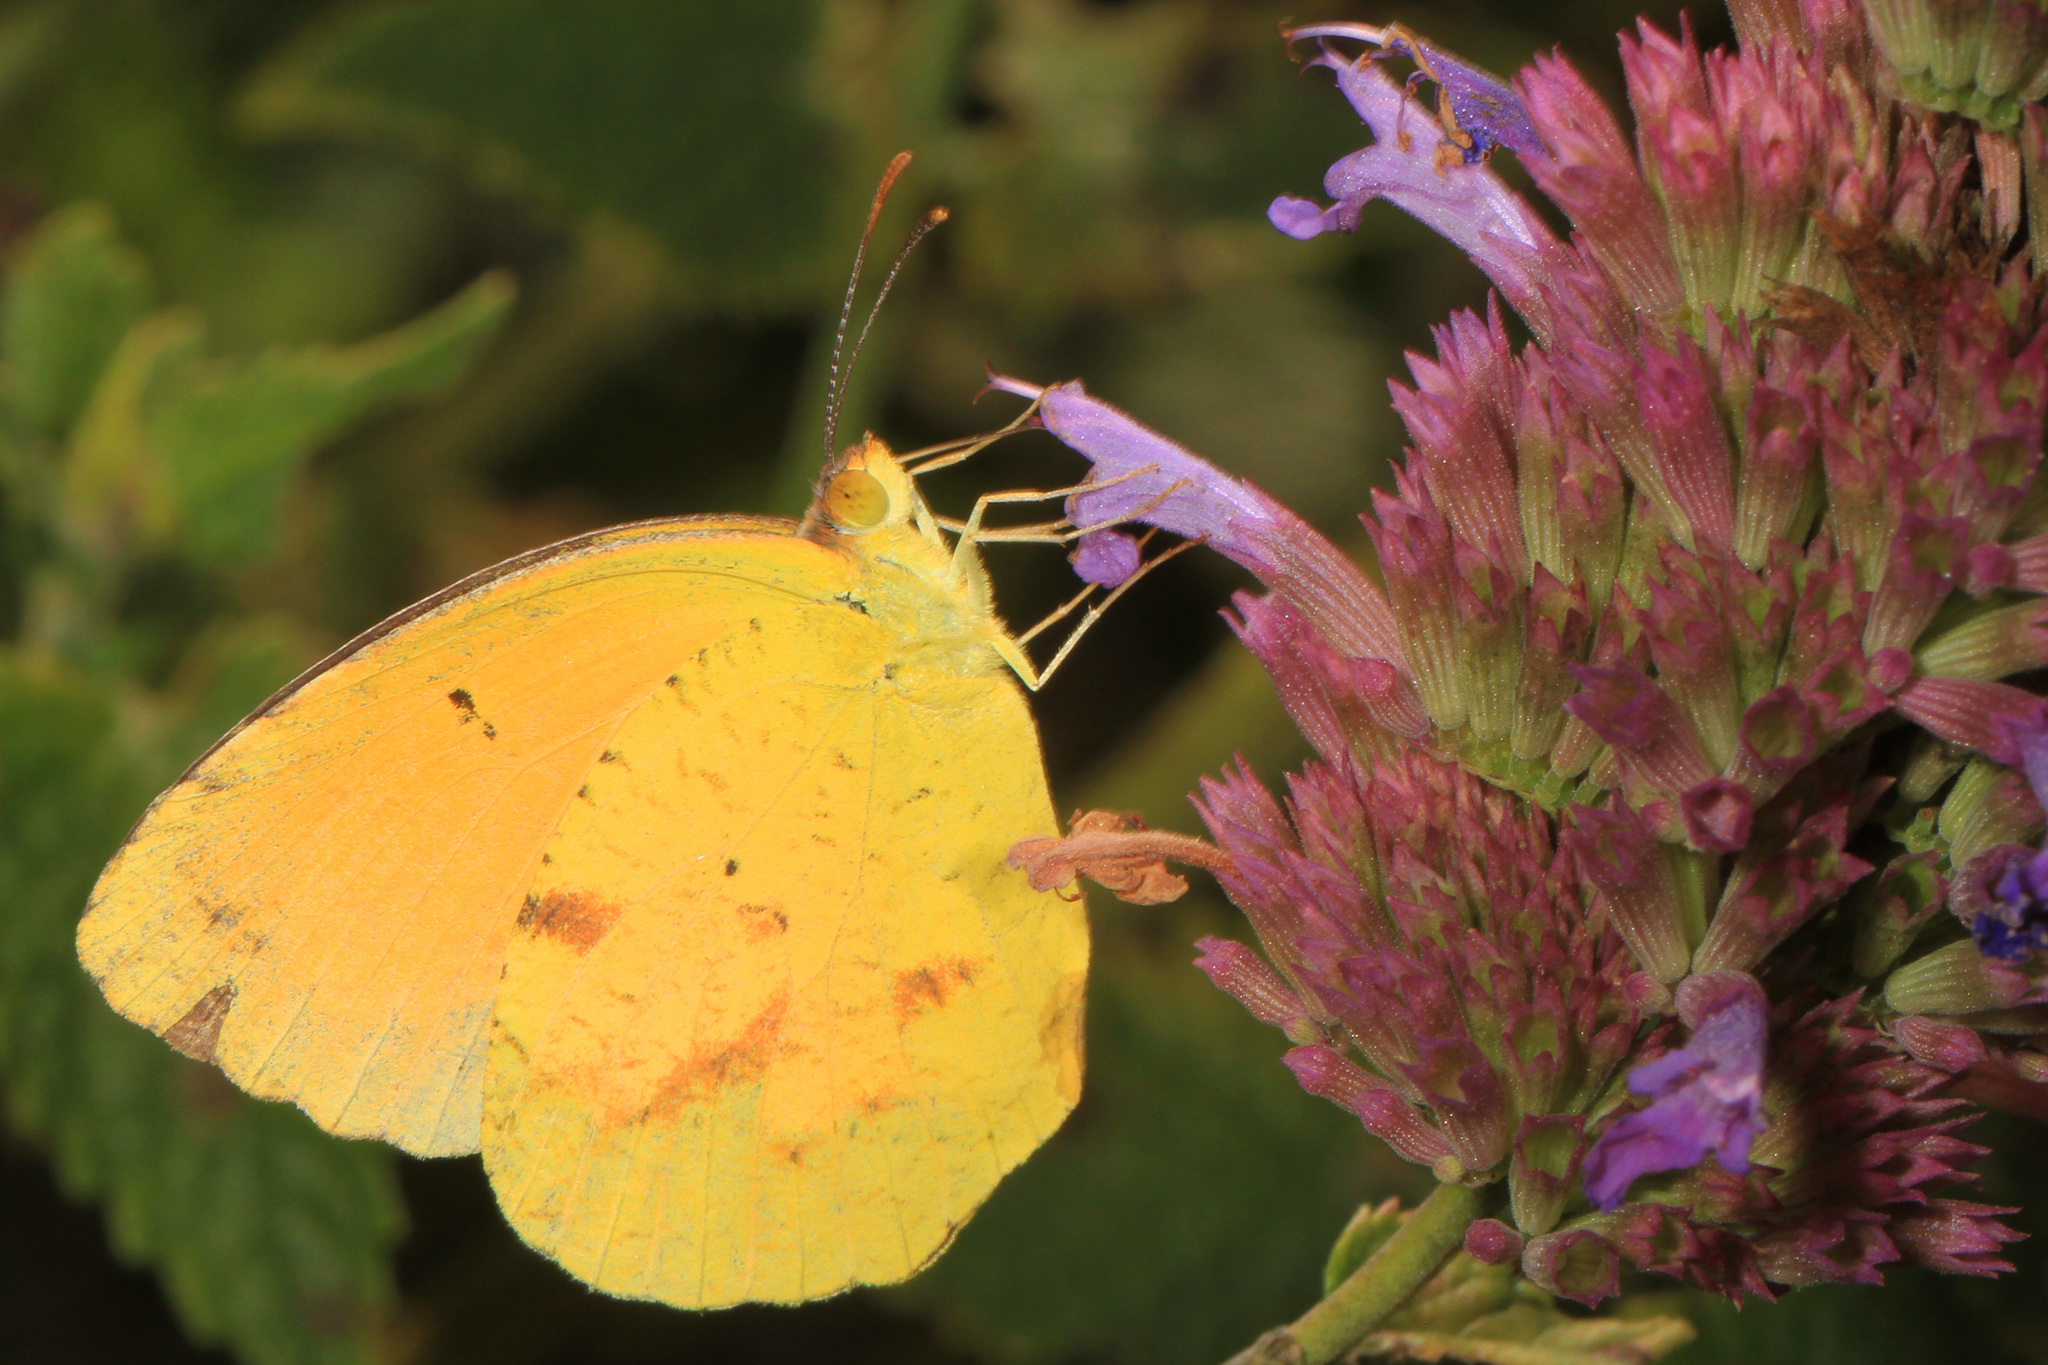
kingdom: Animalia
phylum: Arthropoda
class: Insecta
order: Lepidoptera
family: Pieridae
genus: Abaeis
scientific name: Abaeis nicippe
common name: Sleepy orange
